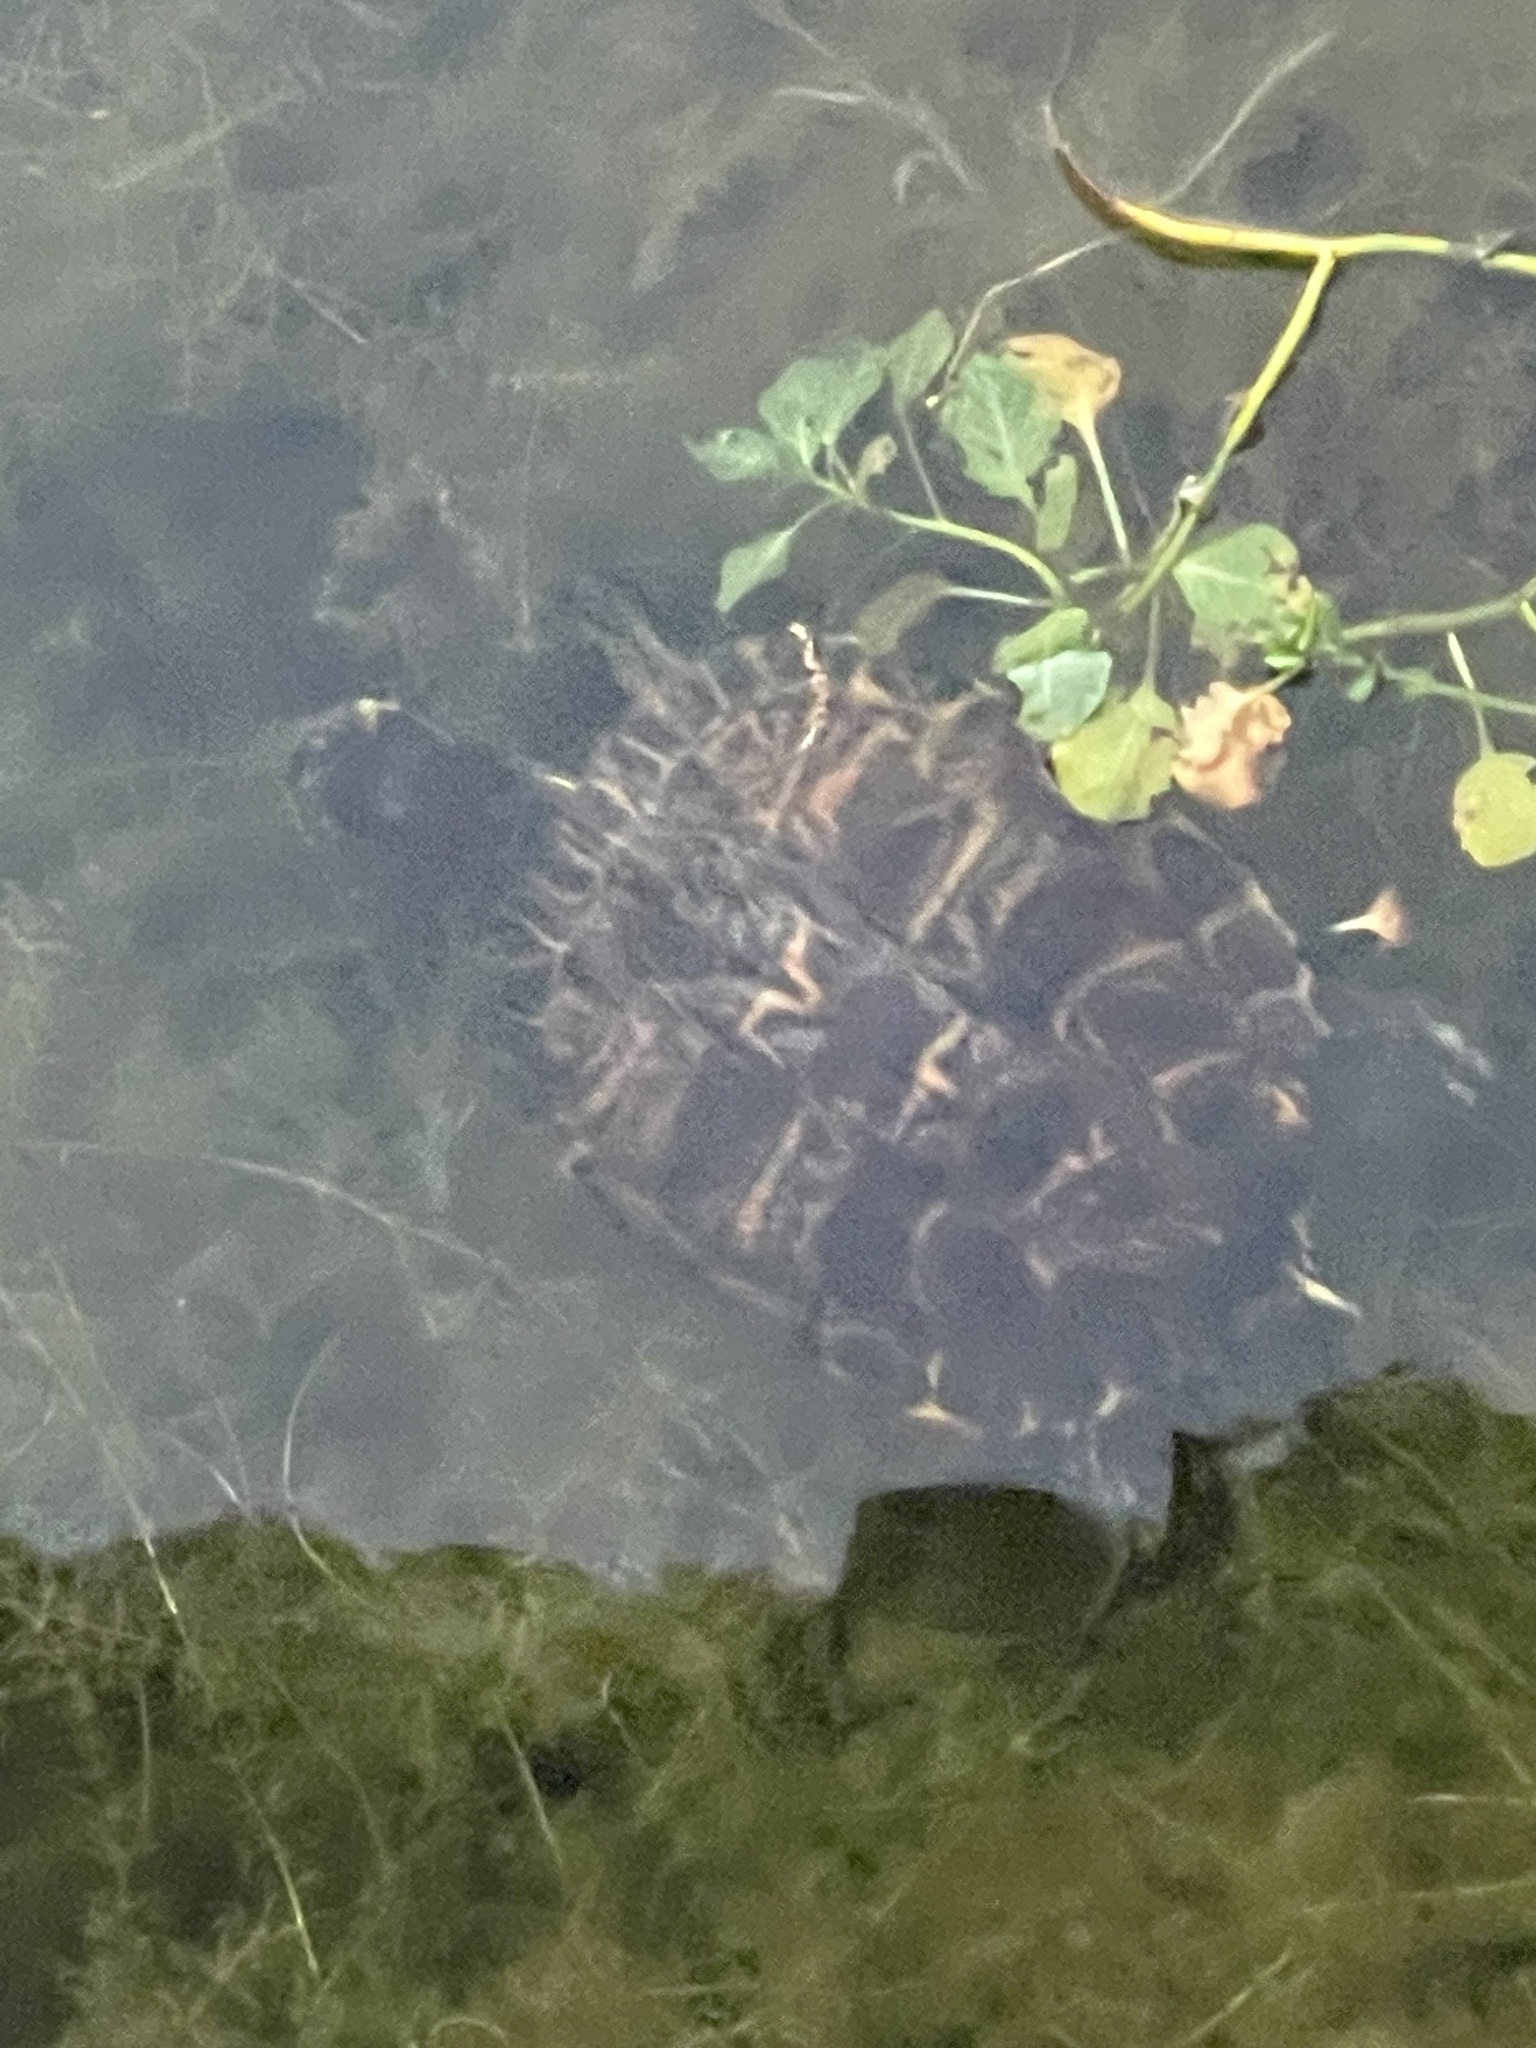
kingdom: Animalia
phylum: Chordata
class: Testudines
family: Emydidae
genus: Trachemys
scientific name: Trachemys scripta
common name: Slider
